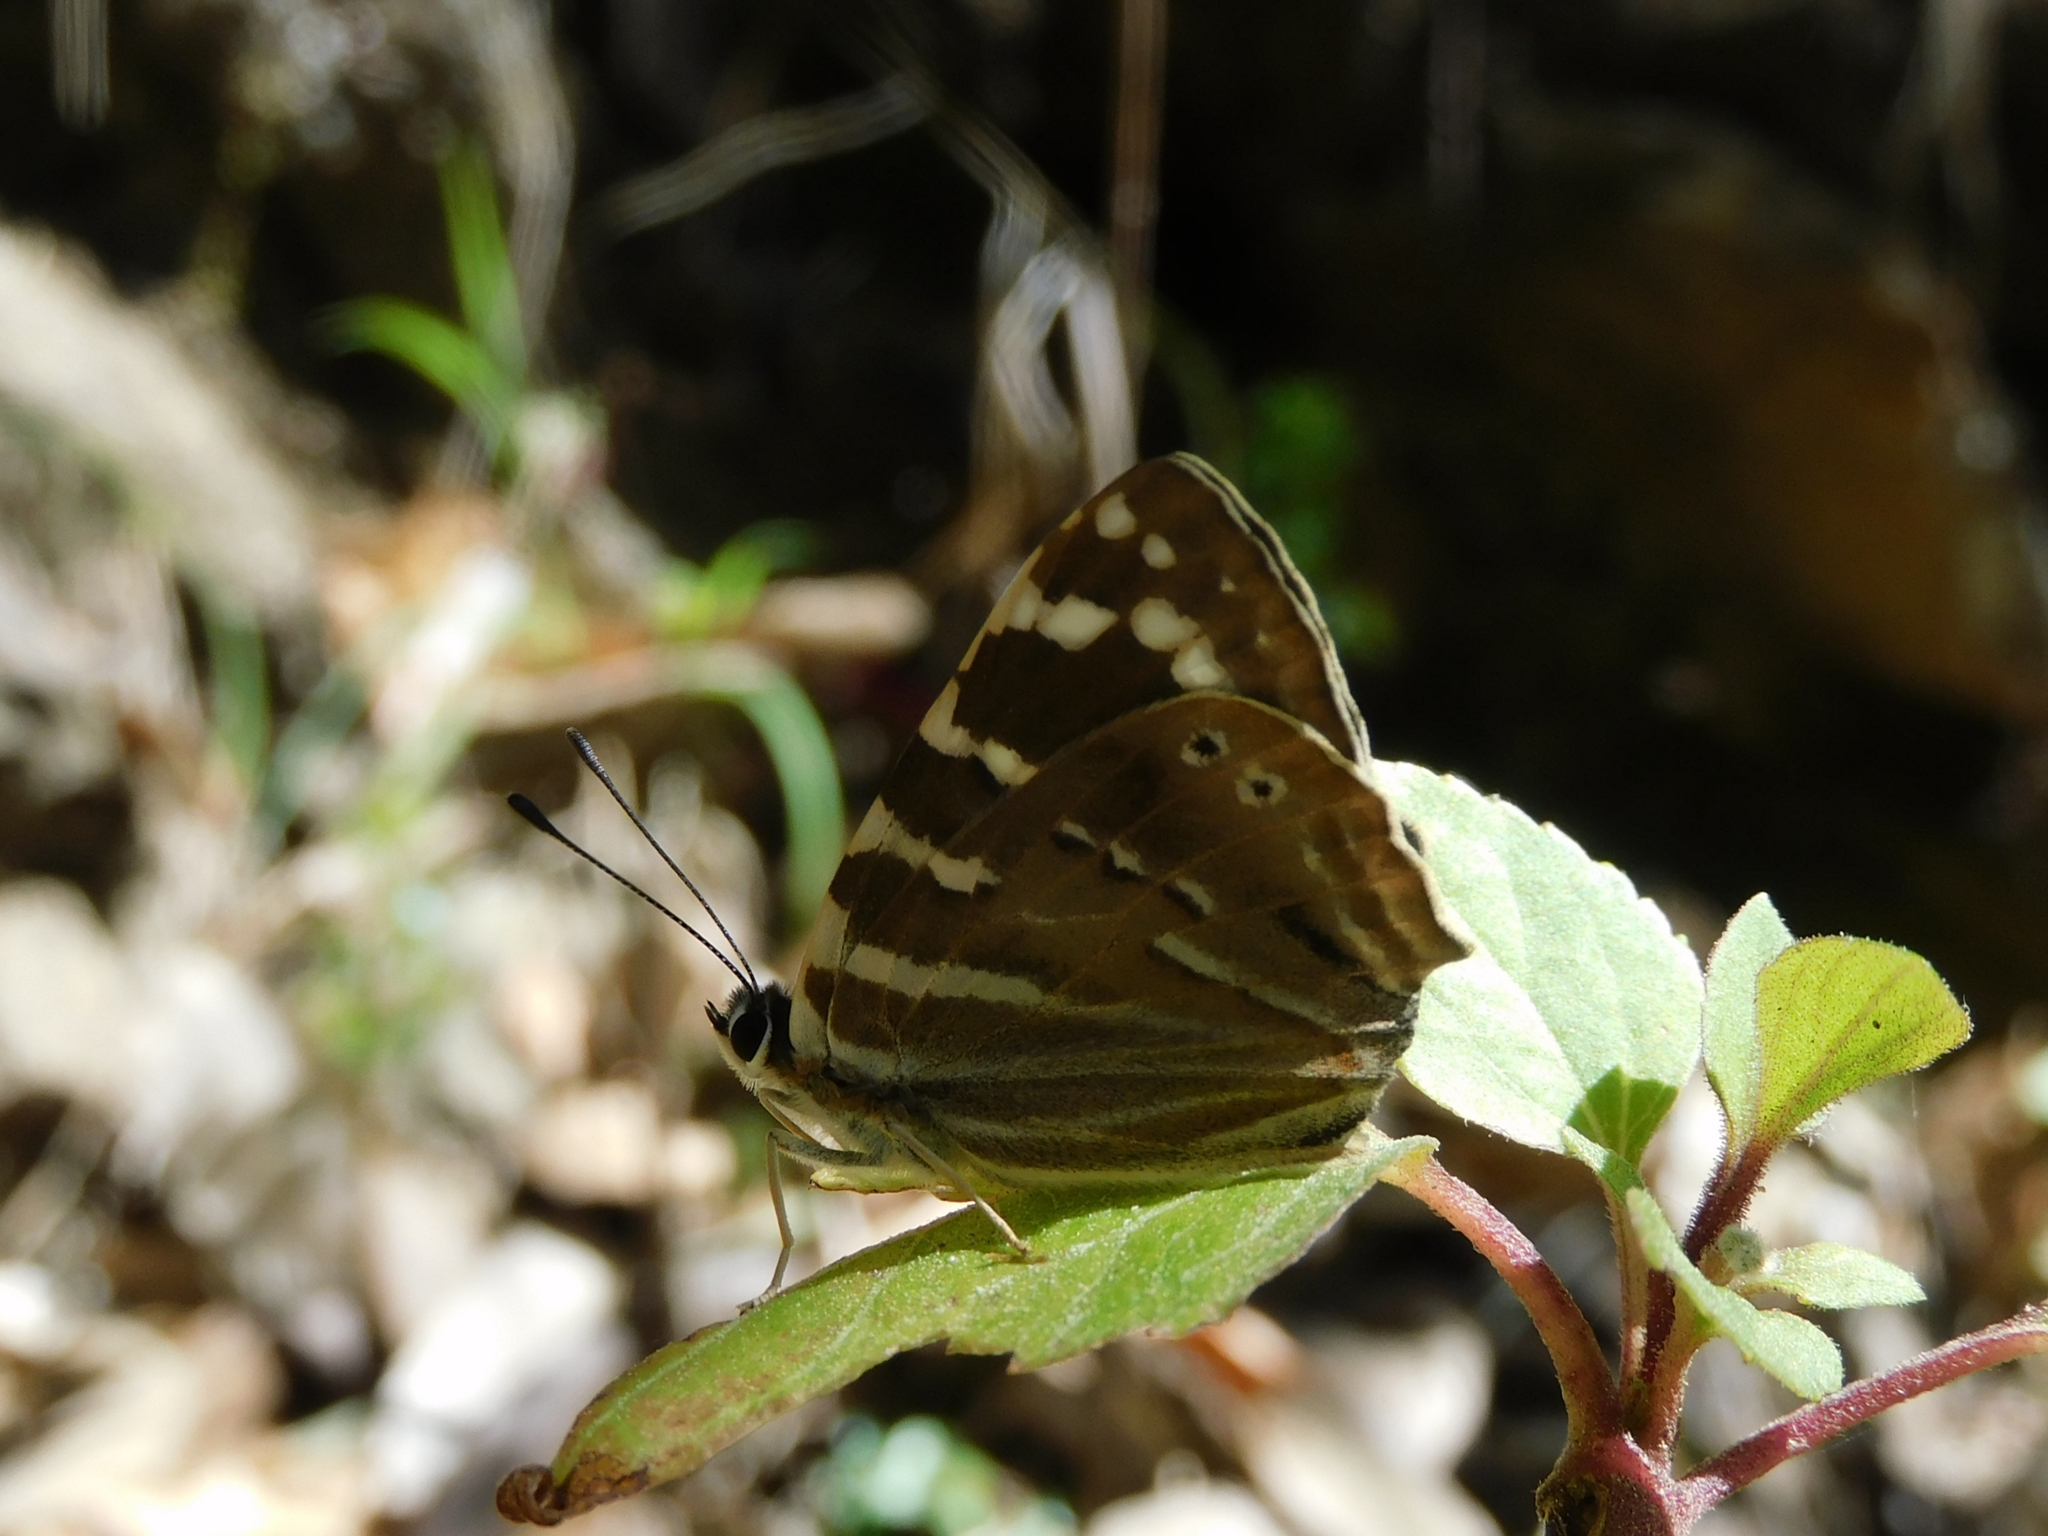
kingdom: Animalia
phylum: Arthropoda
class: Insecta
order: Lepidoptera
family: Lycaenidae
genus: Dodona
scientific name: Dodona dipoea
